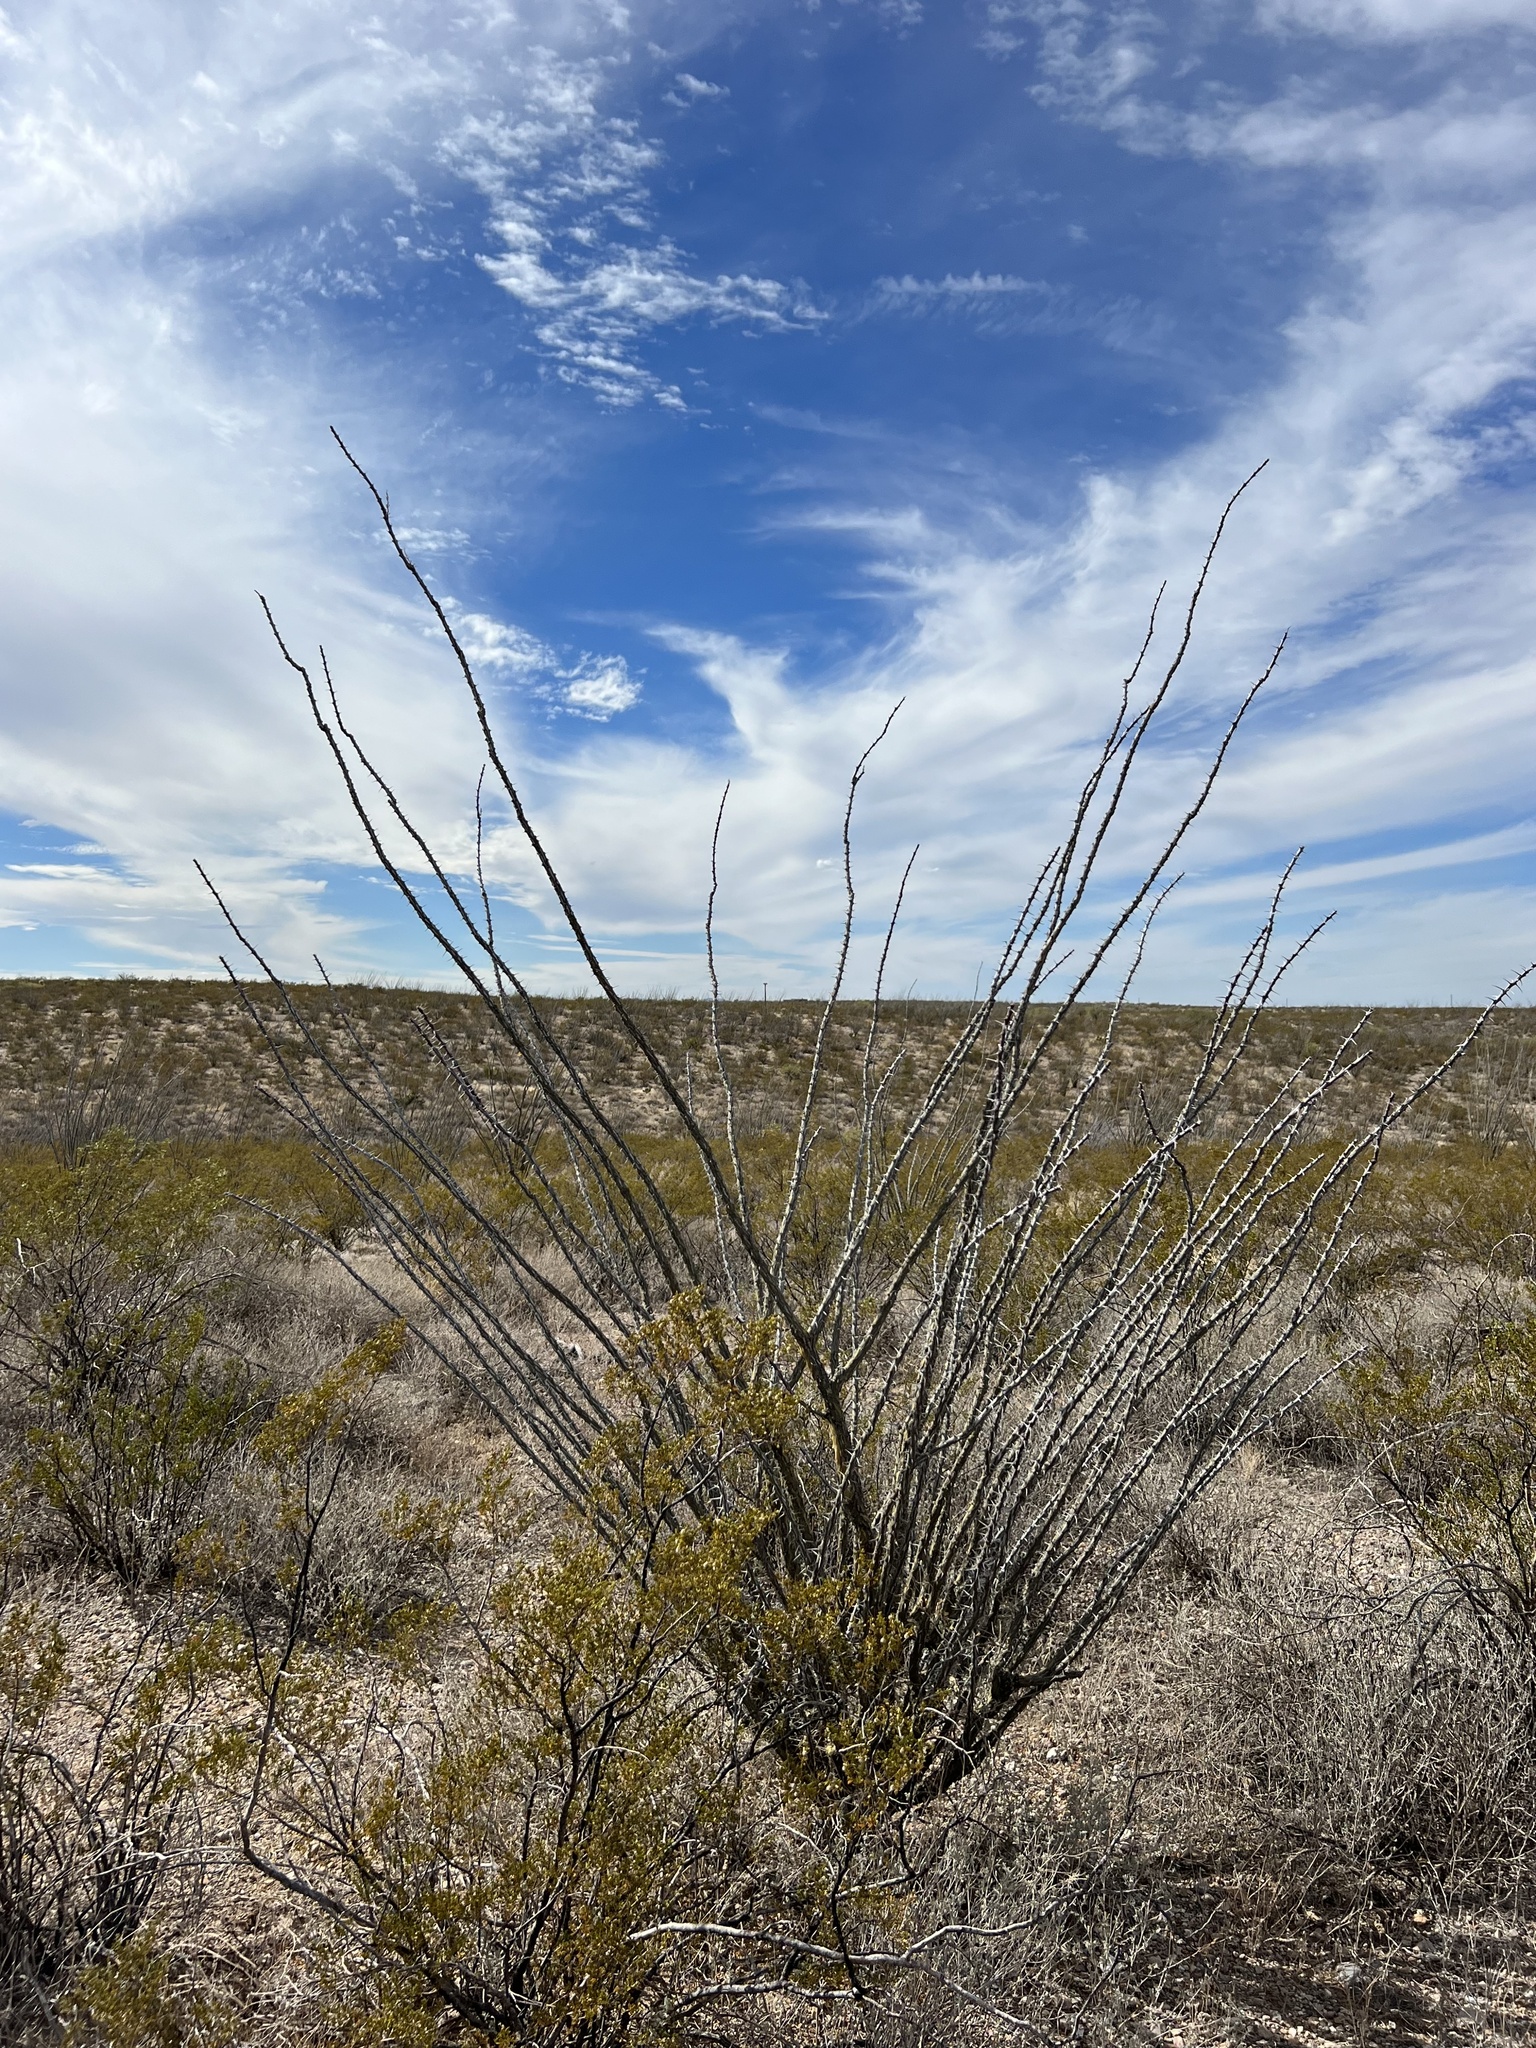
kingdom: Plantae
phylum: Tracheophyta
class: Magnoliopsida
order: Ericales
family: Fouquieriaceae
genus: Fouquieria
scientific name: Fouquieria splendens
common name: Vine-cactus
